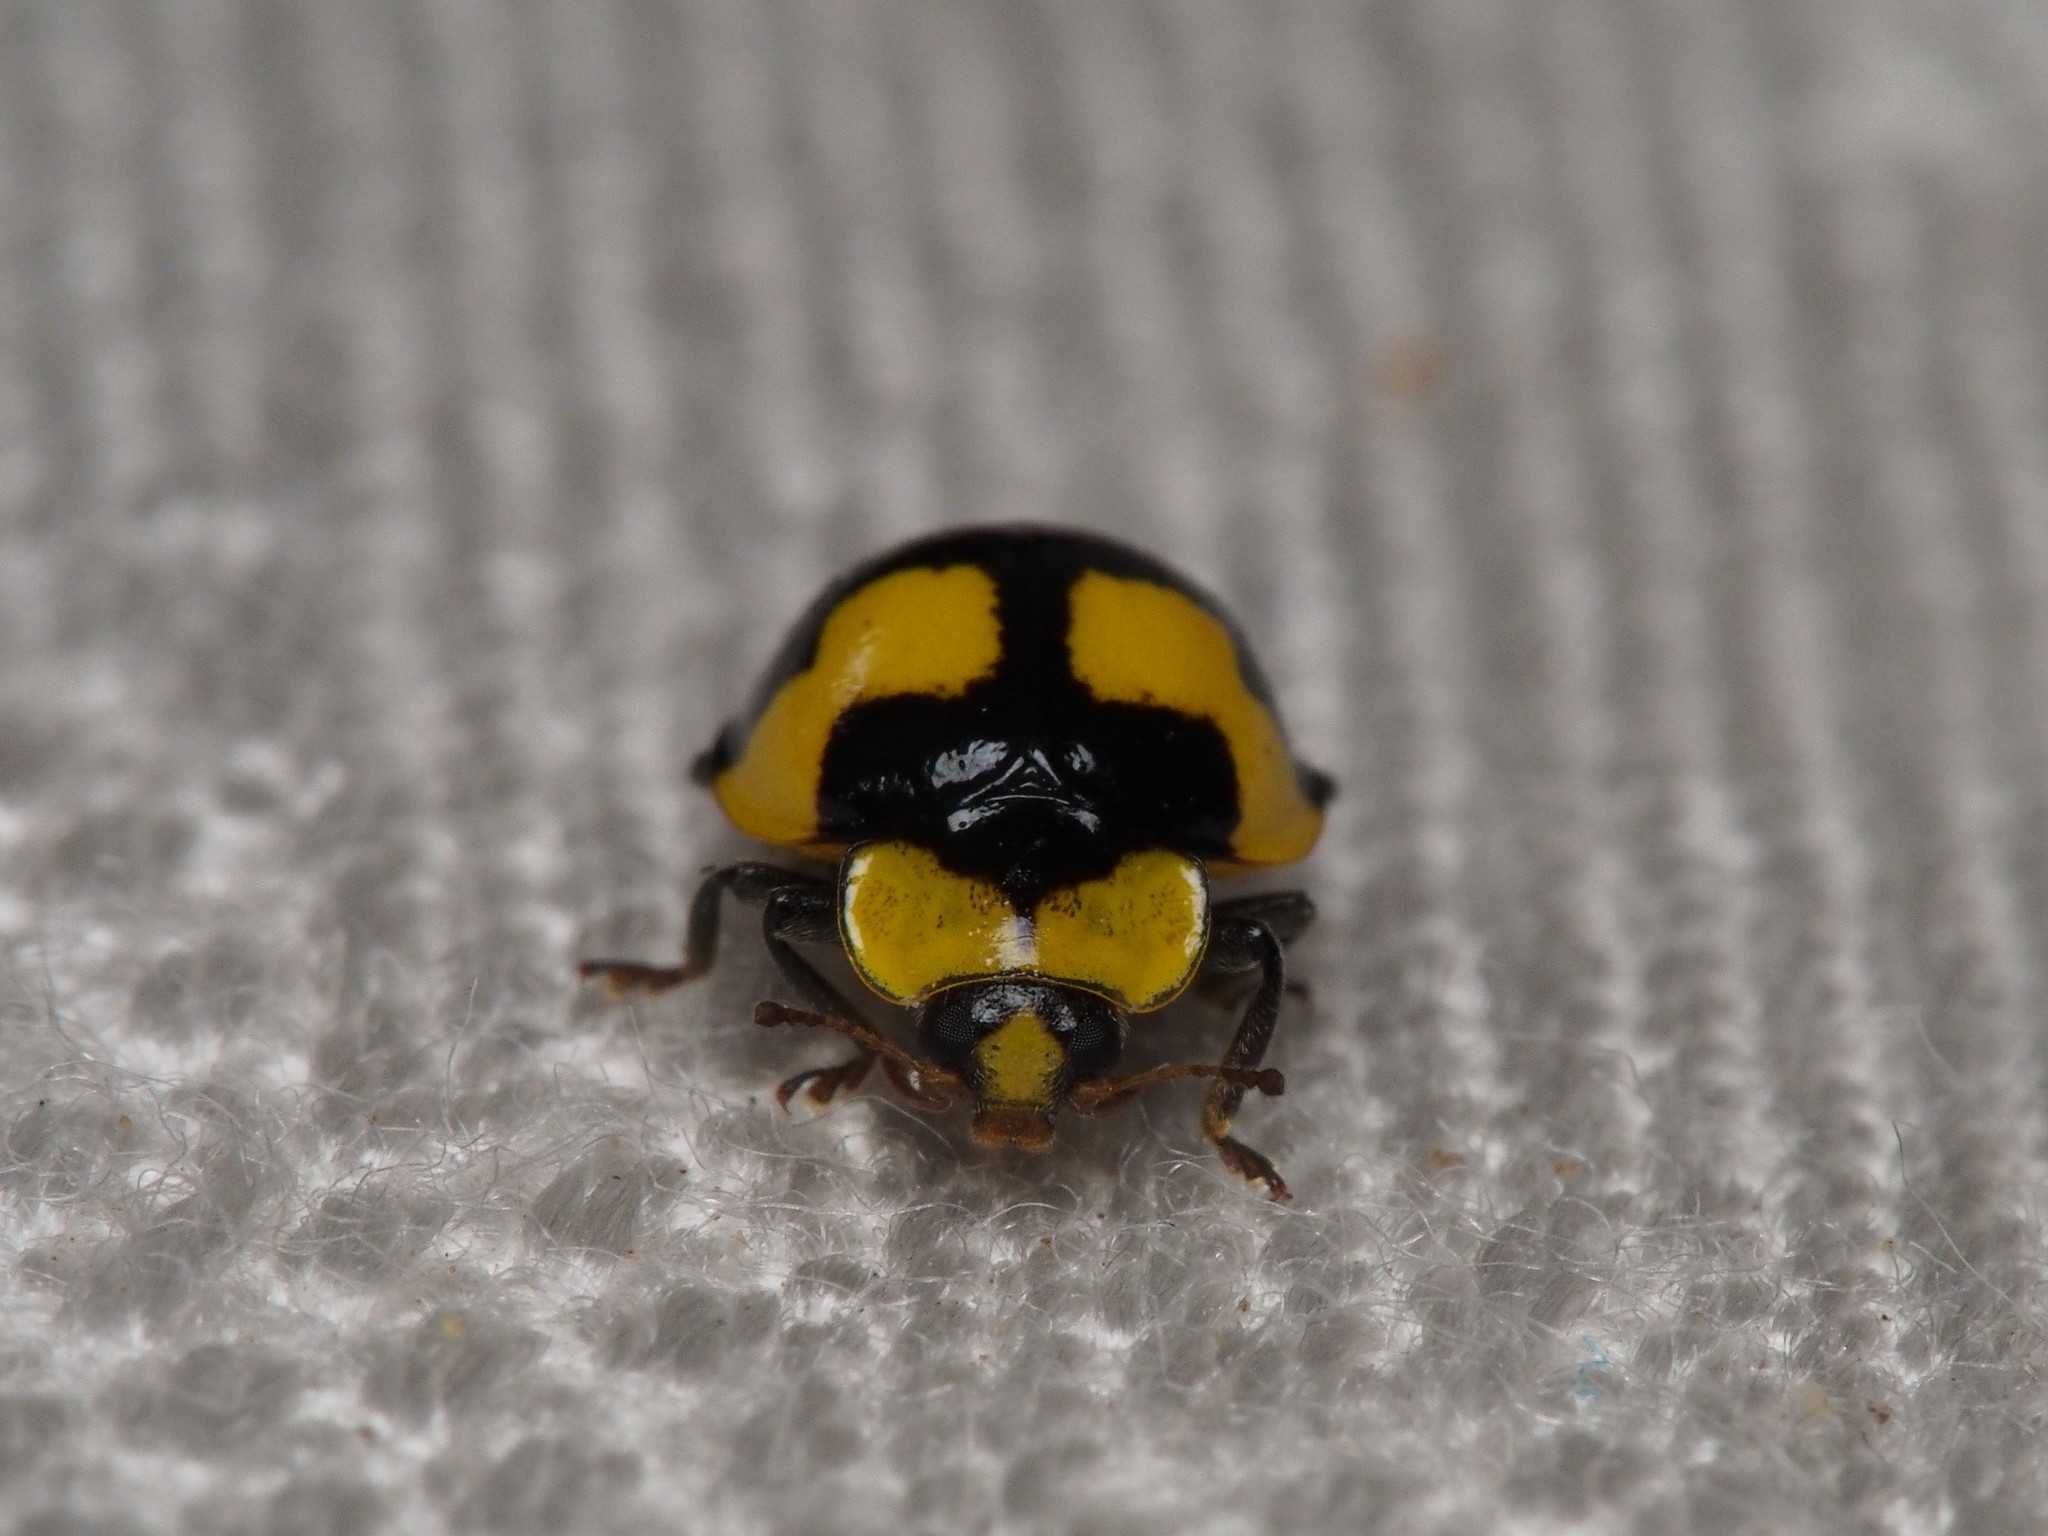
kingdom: Animalia
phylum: Arthropoda
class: Insecta
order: Coleoptera
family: Coccinellidae
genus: Illeis
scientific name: Illeis galbula
